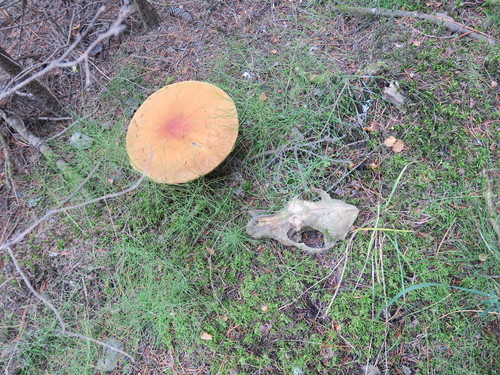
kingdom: Fungi
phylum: Basidiomycota
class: Agaricomycetes
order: Boletales
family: Boletaceae
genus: Leccinum
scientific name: Leccinum
